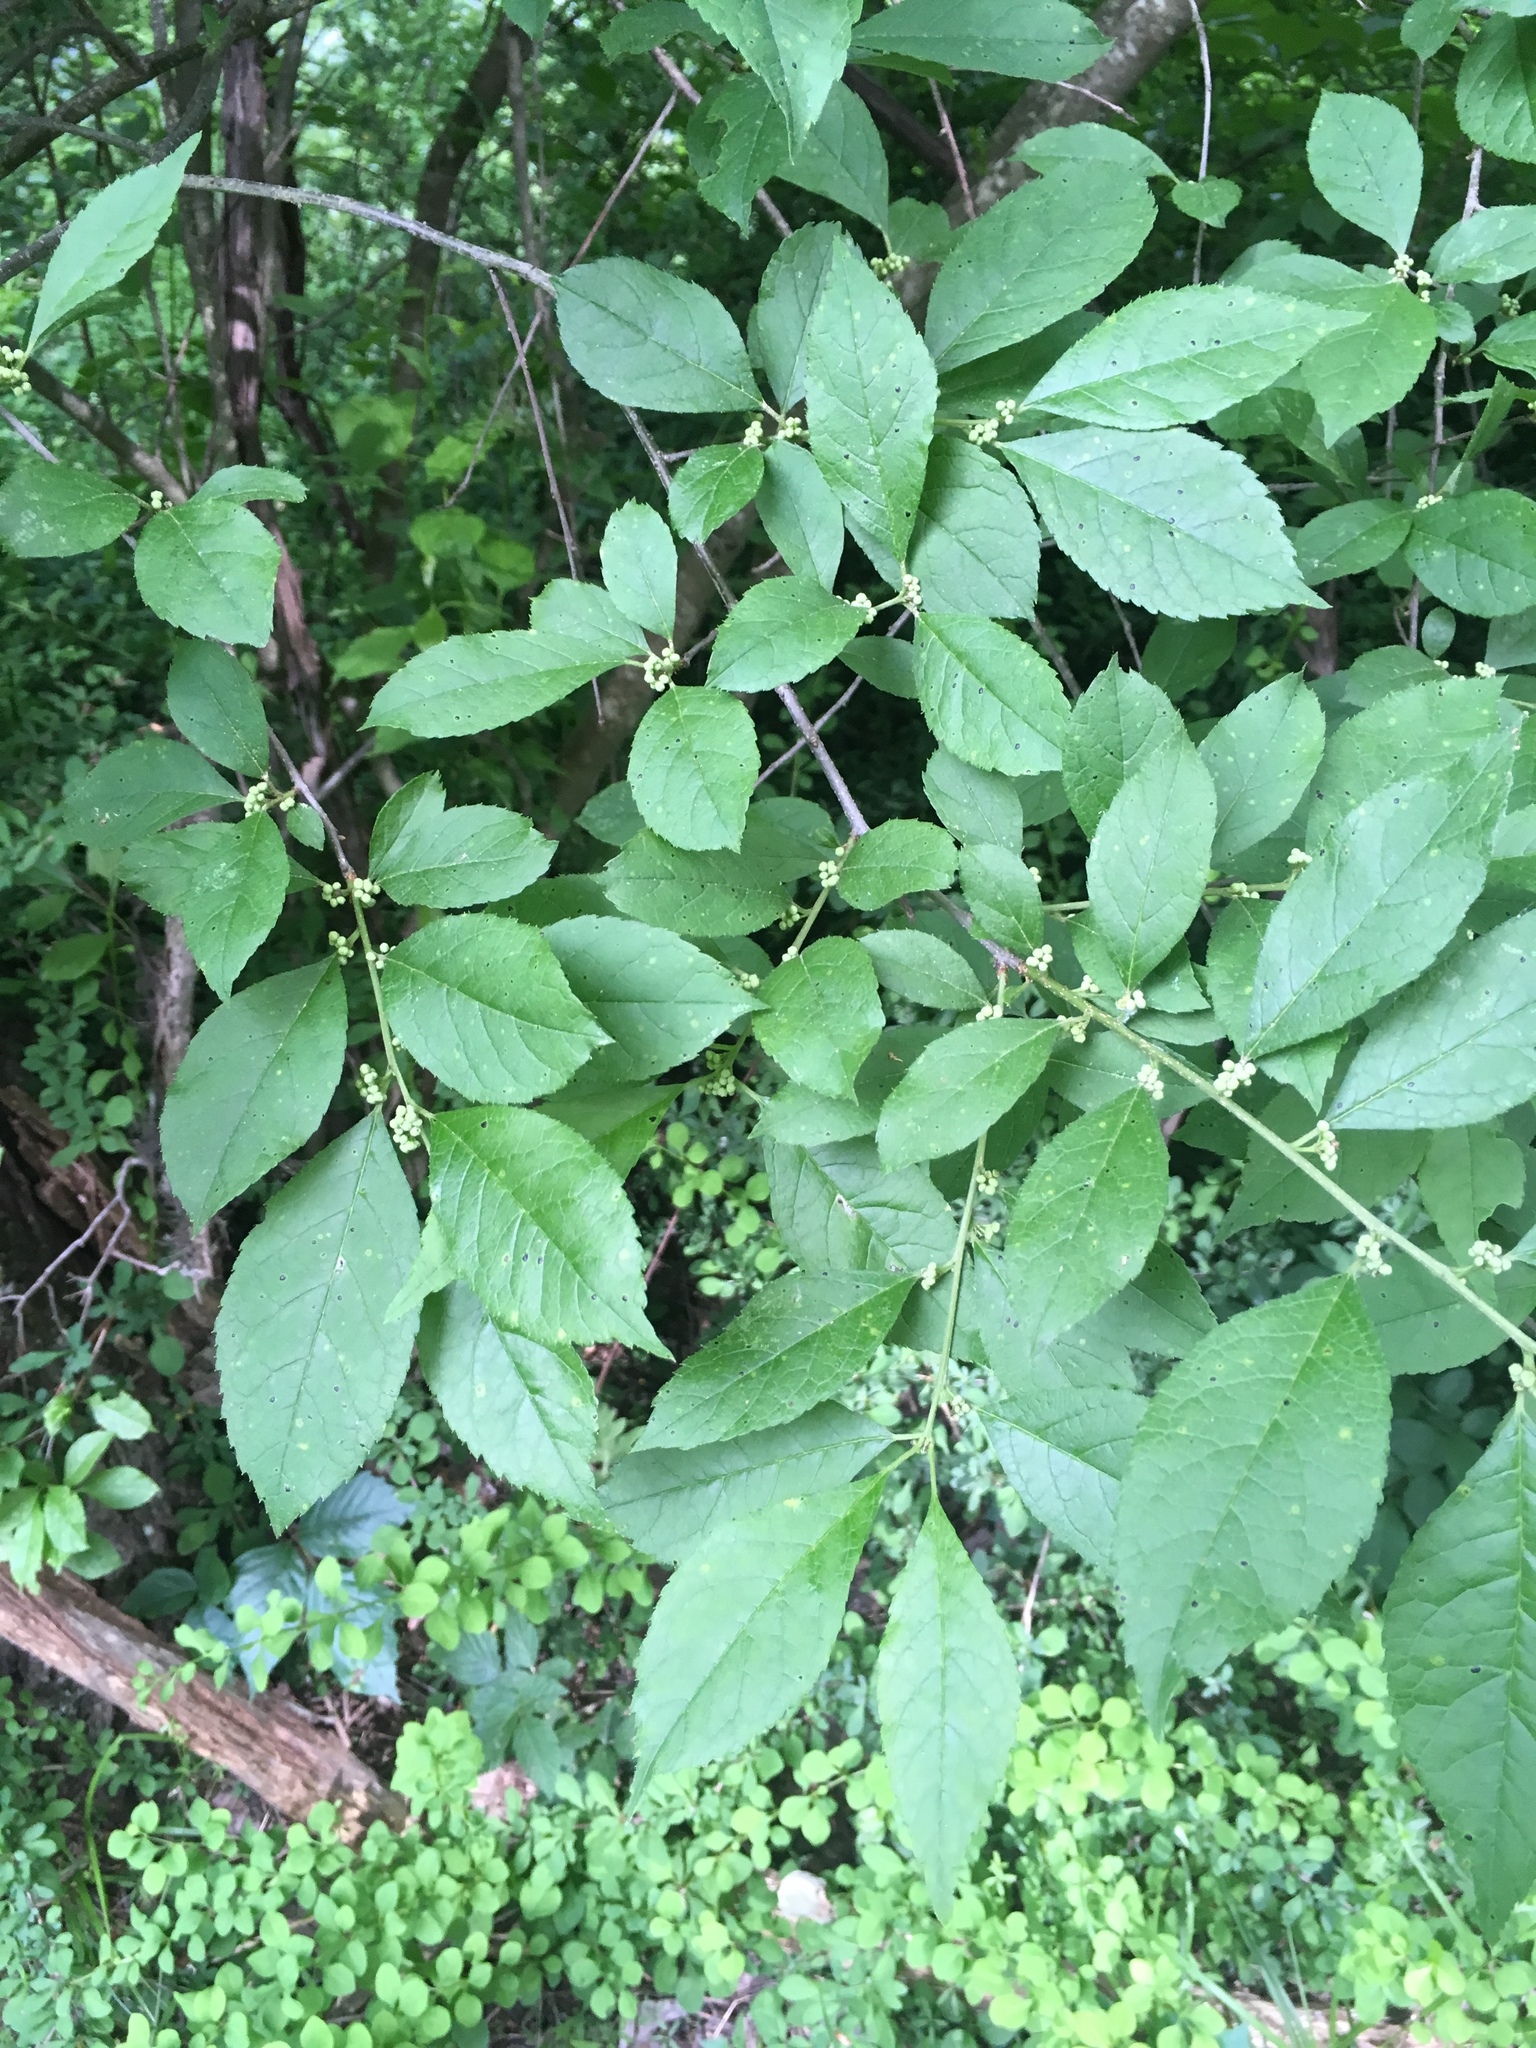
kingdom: Plantae
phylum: Tracheophyta
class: Magnoliopsida
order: Aquifoliales
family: Aquifoliaceae
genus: Ilex
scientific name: Ilex verticillata
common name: Virginia winterberry
